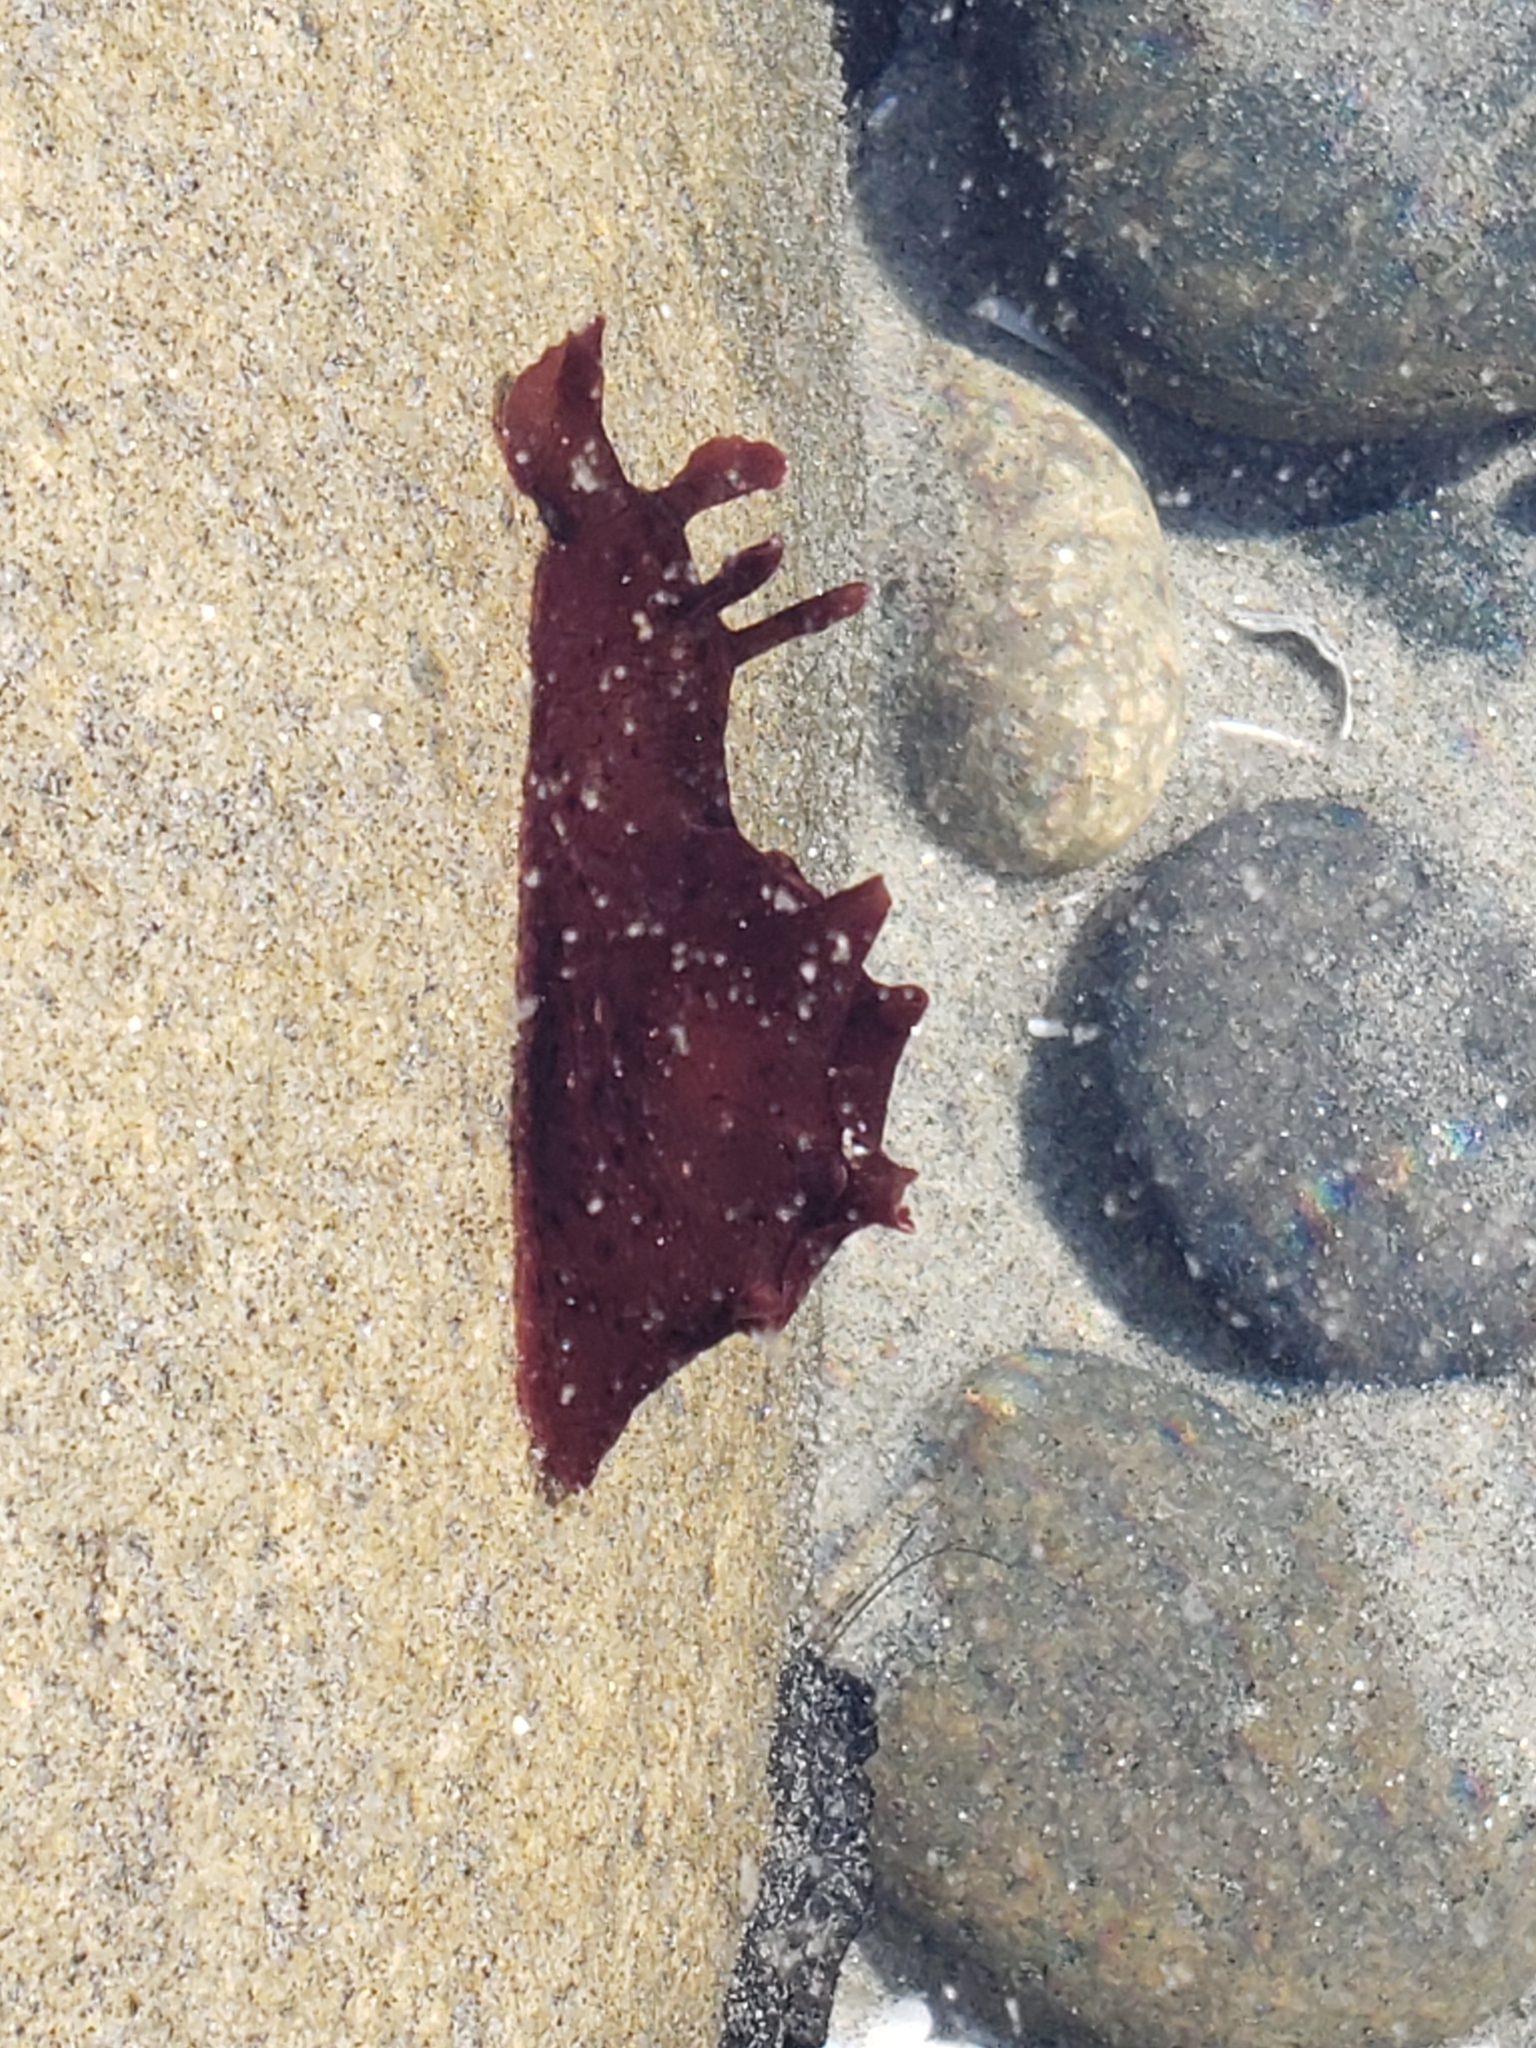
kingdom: Animalia
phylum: Mollusca
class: Gastropoda
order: Aplysiida
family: Aplysiidae
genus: Aplysia
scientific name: Aplysia californica
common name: California seahare
